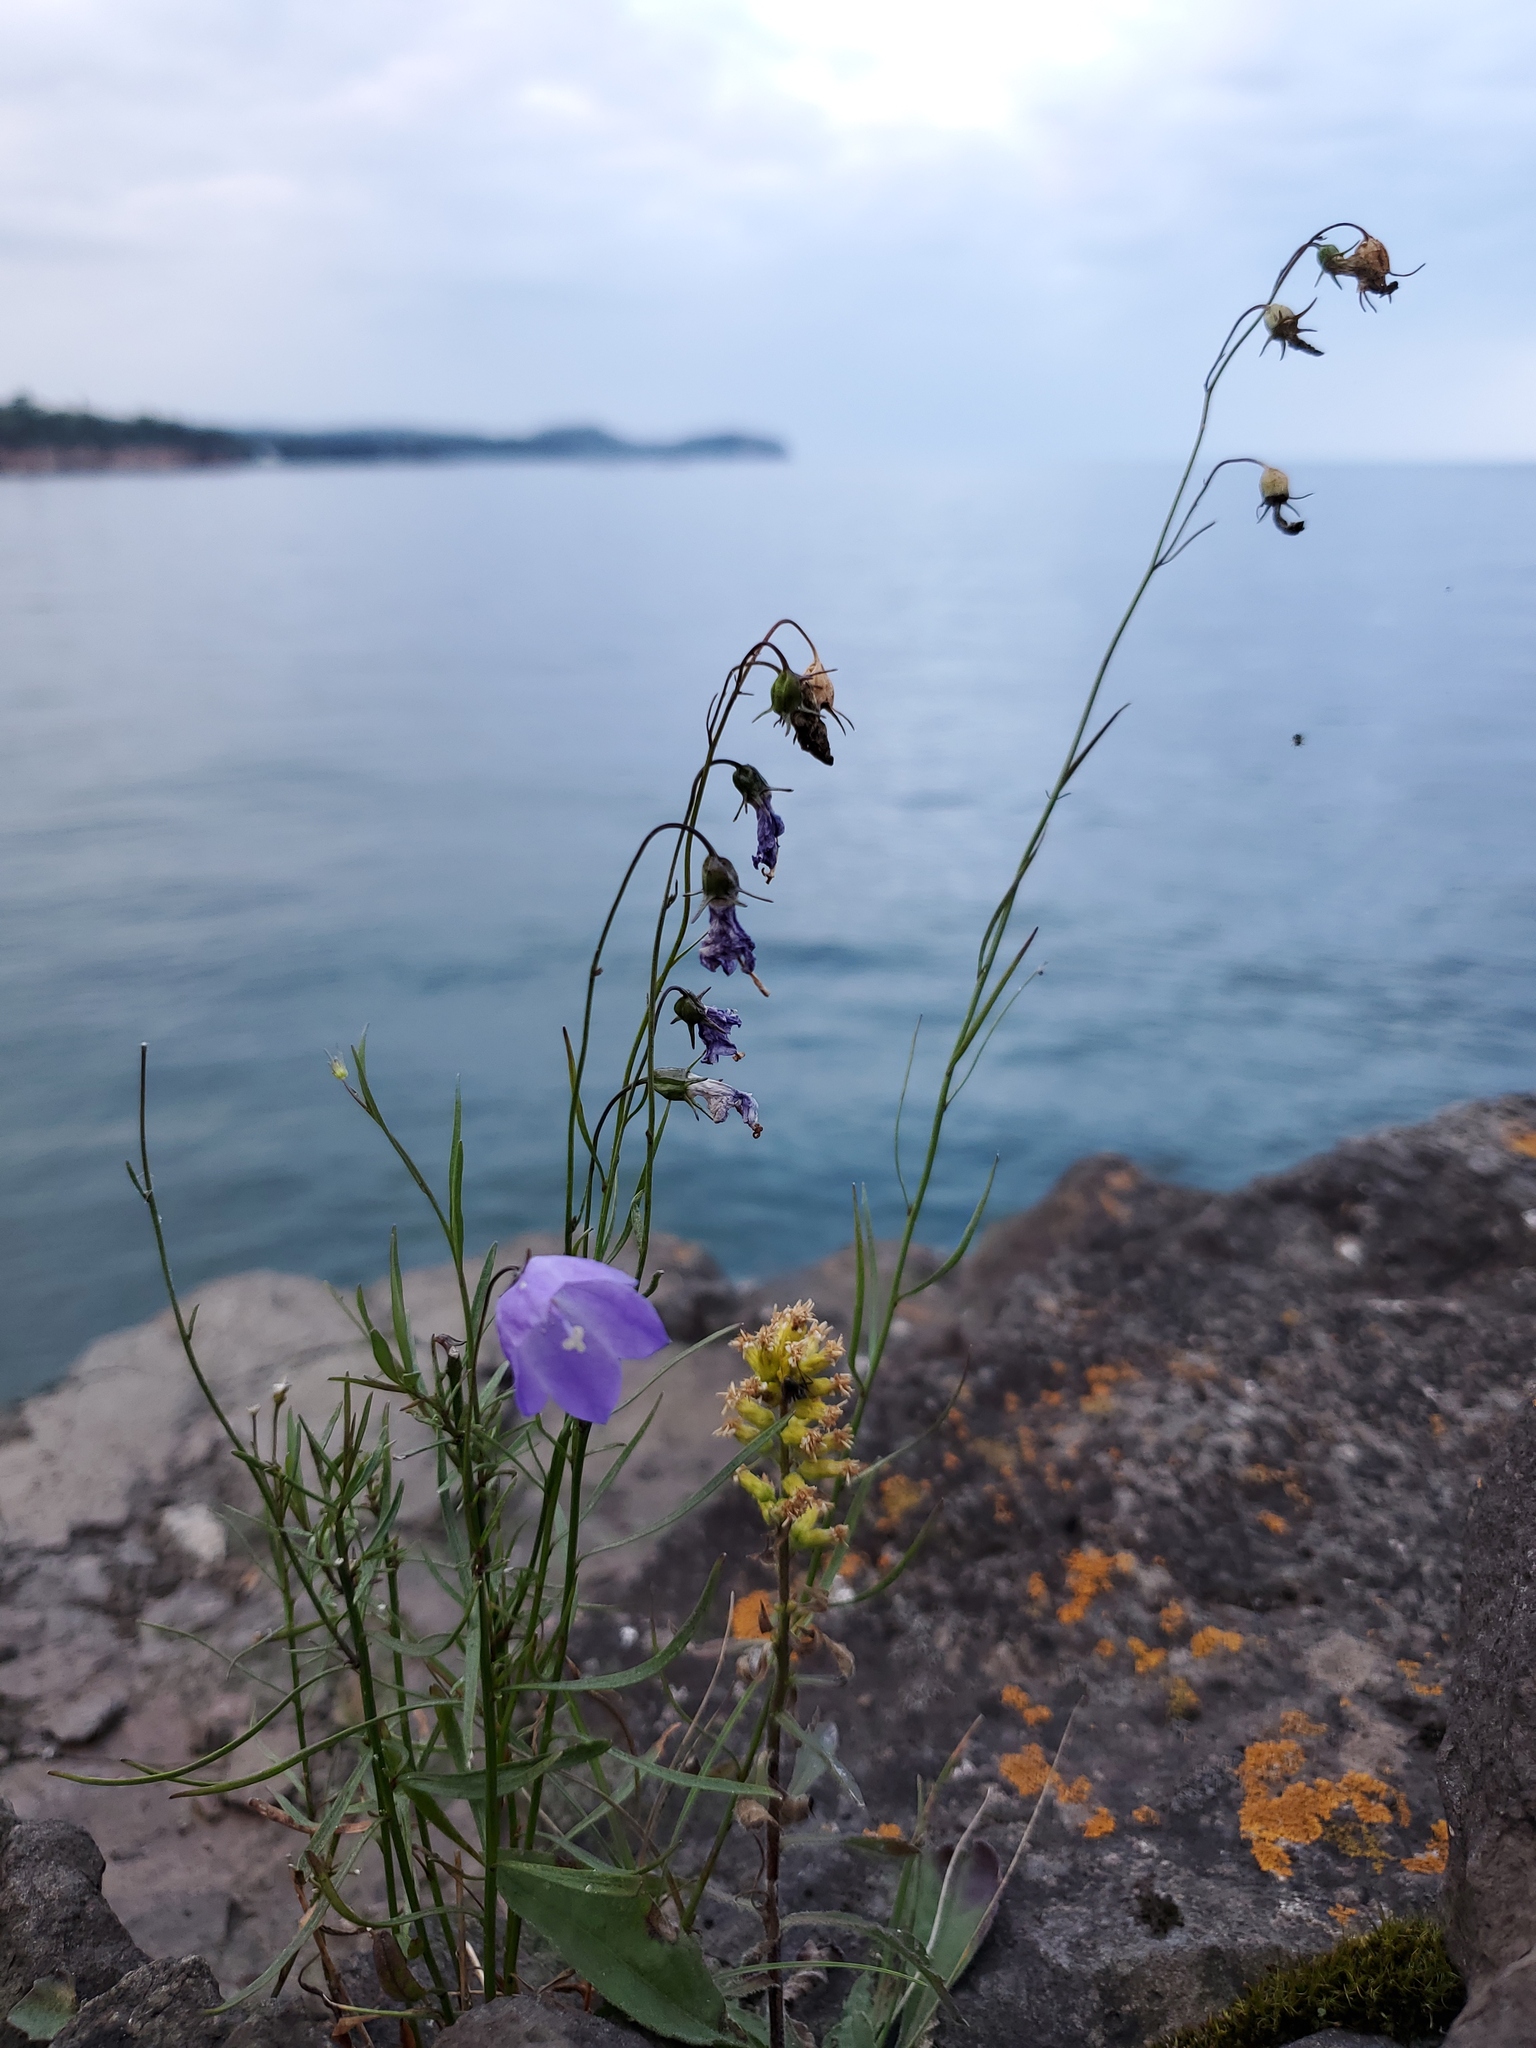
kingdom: Plantae
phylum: Tracheophyta
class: Magnoliopsida
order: Asterales
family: Campanulaceae
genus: Campanula
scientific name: Campanula intercedens
